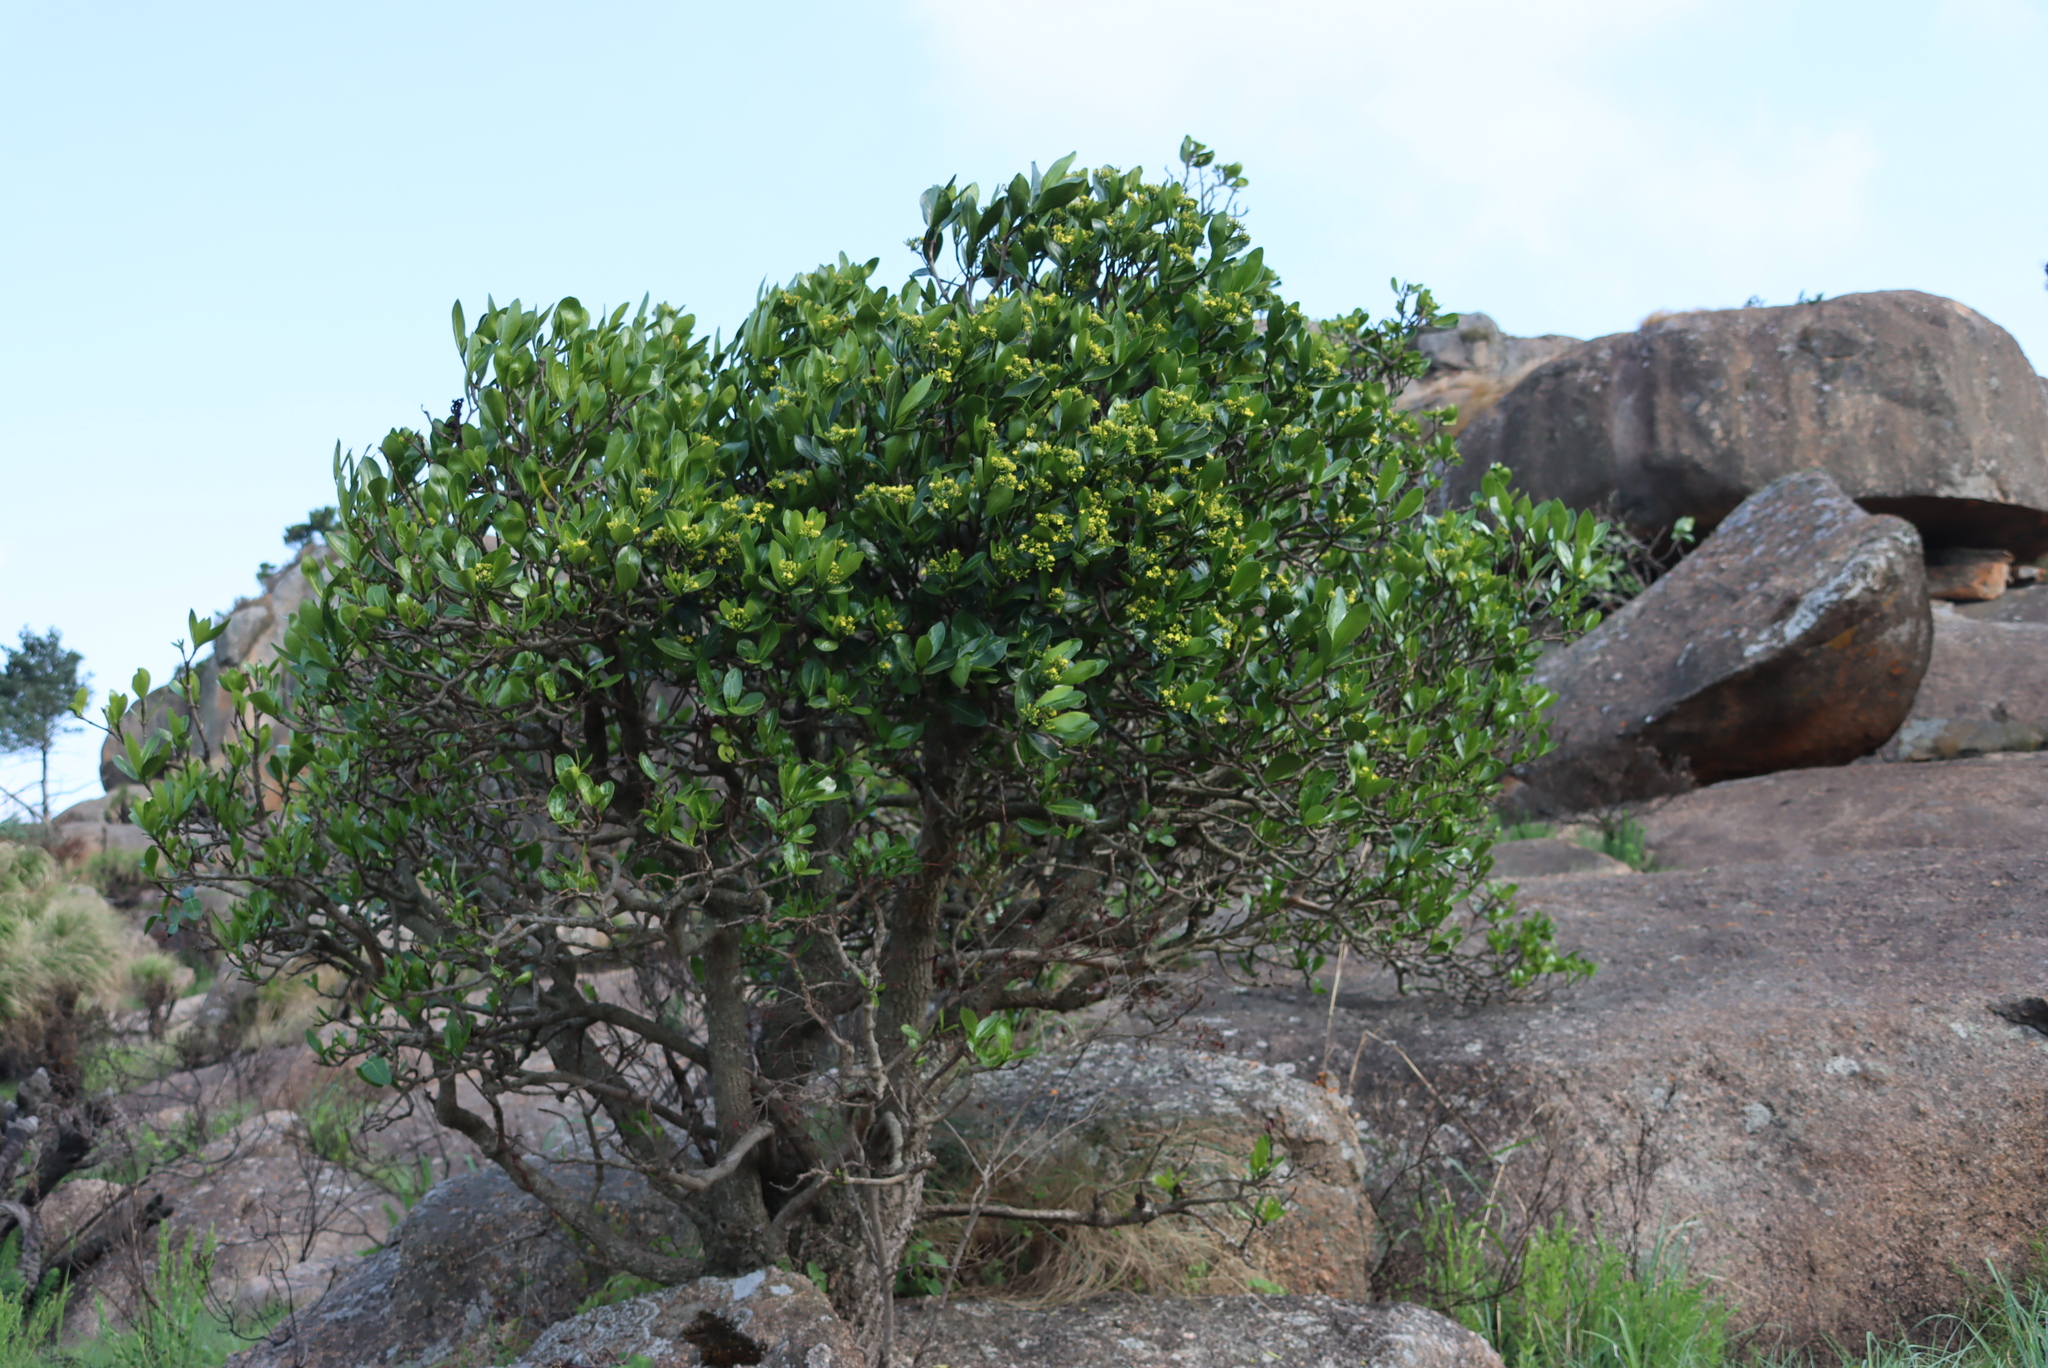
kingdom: Plantae
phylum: Tracheophyta
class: Magnoliopsida
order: Gentianales
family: Rubiaceae
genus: Psychotria
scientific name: Psychotria
